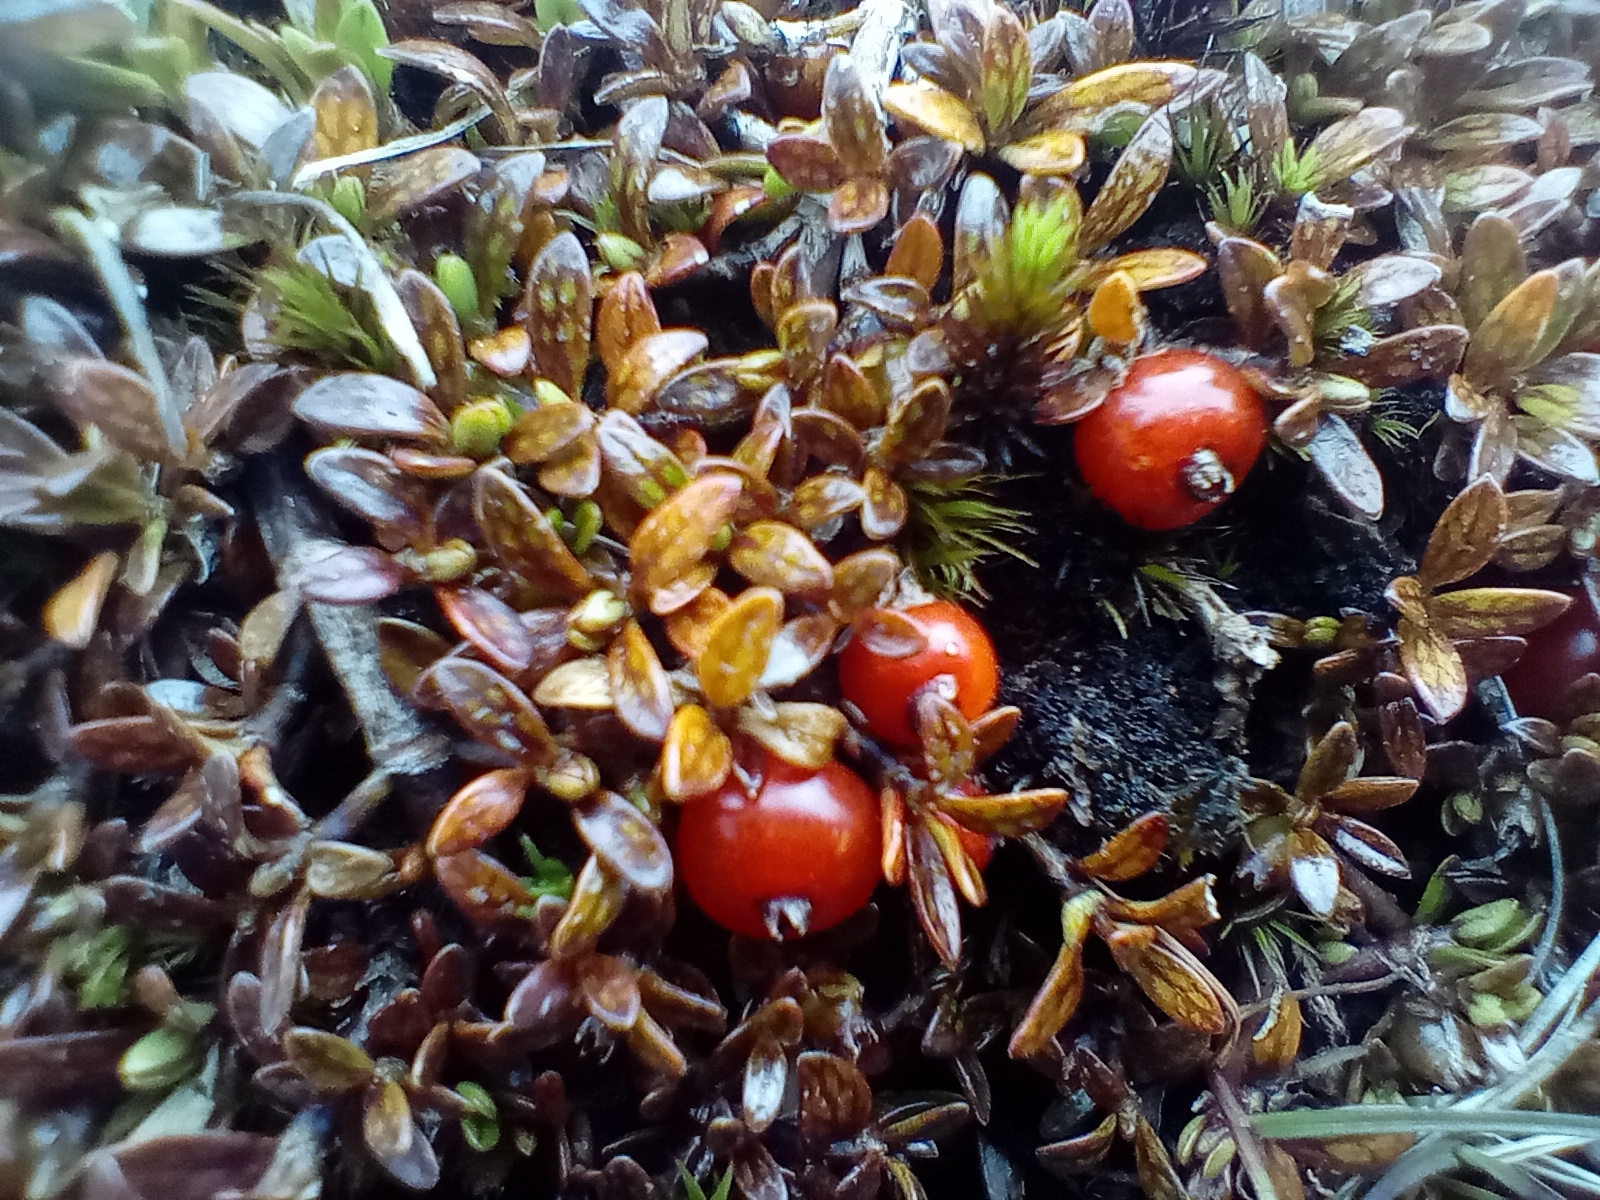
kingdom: Plantae
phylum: Tracheophyta
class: Magnoliopsida
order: Gentianales
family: Rubiaceae
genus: Coprosma
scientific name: Coprosma perpusilla
